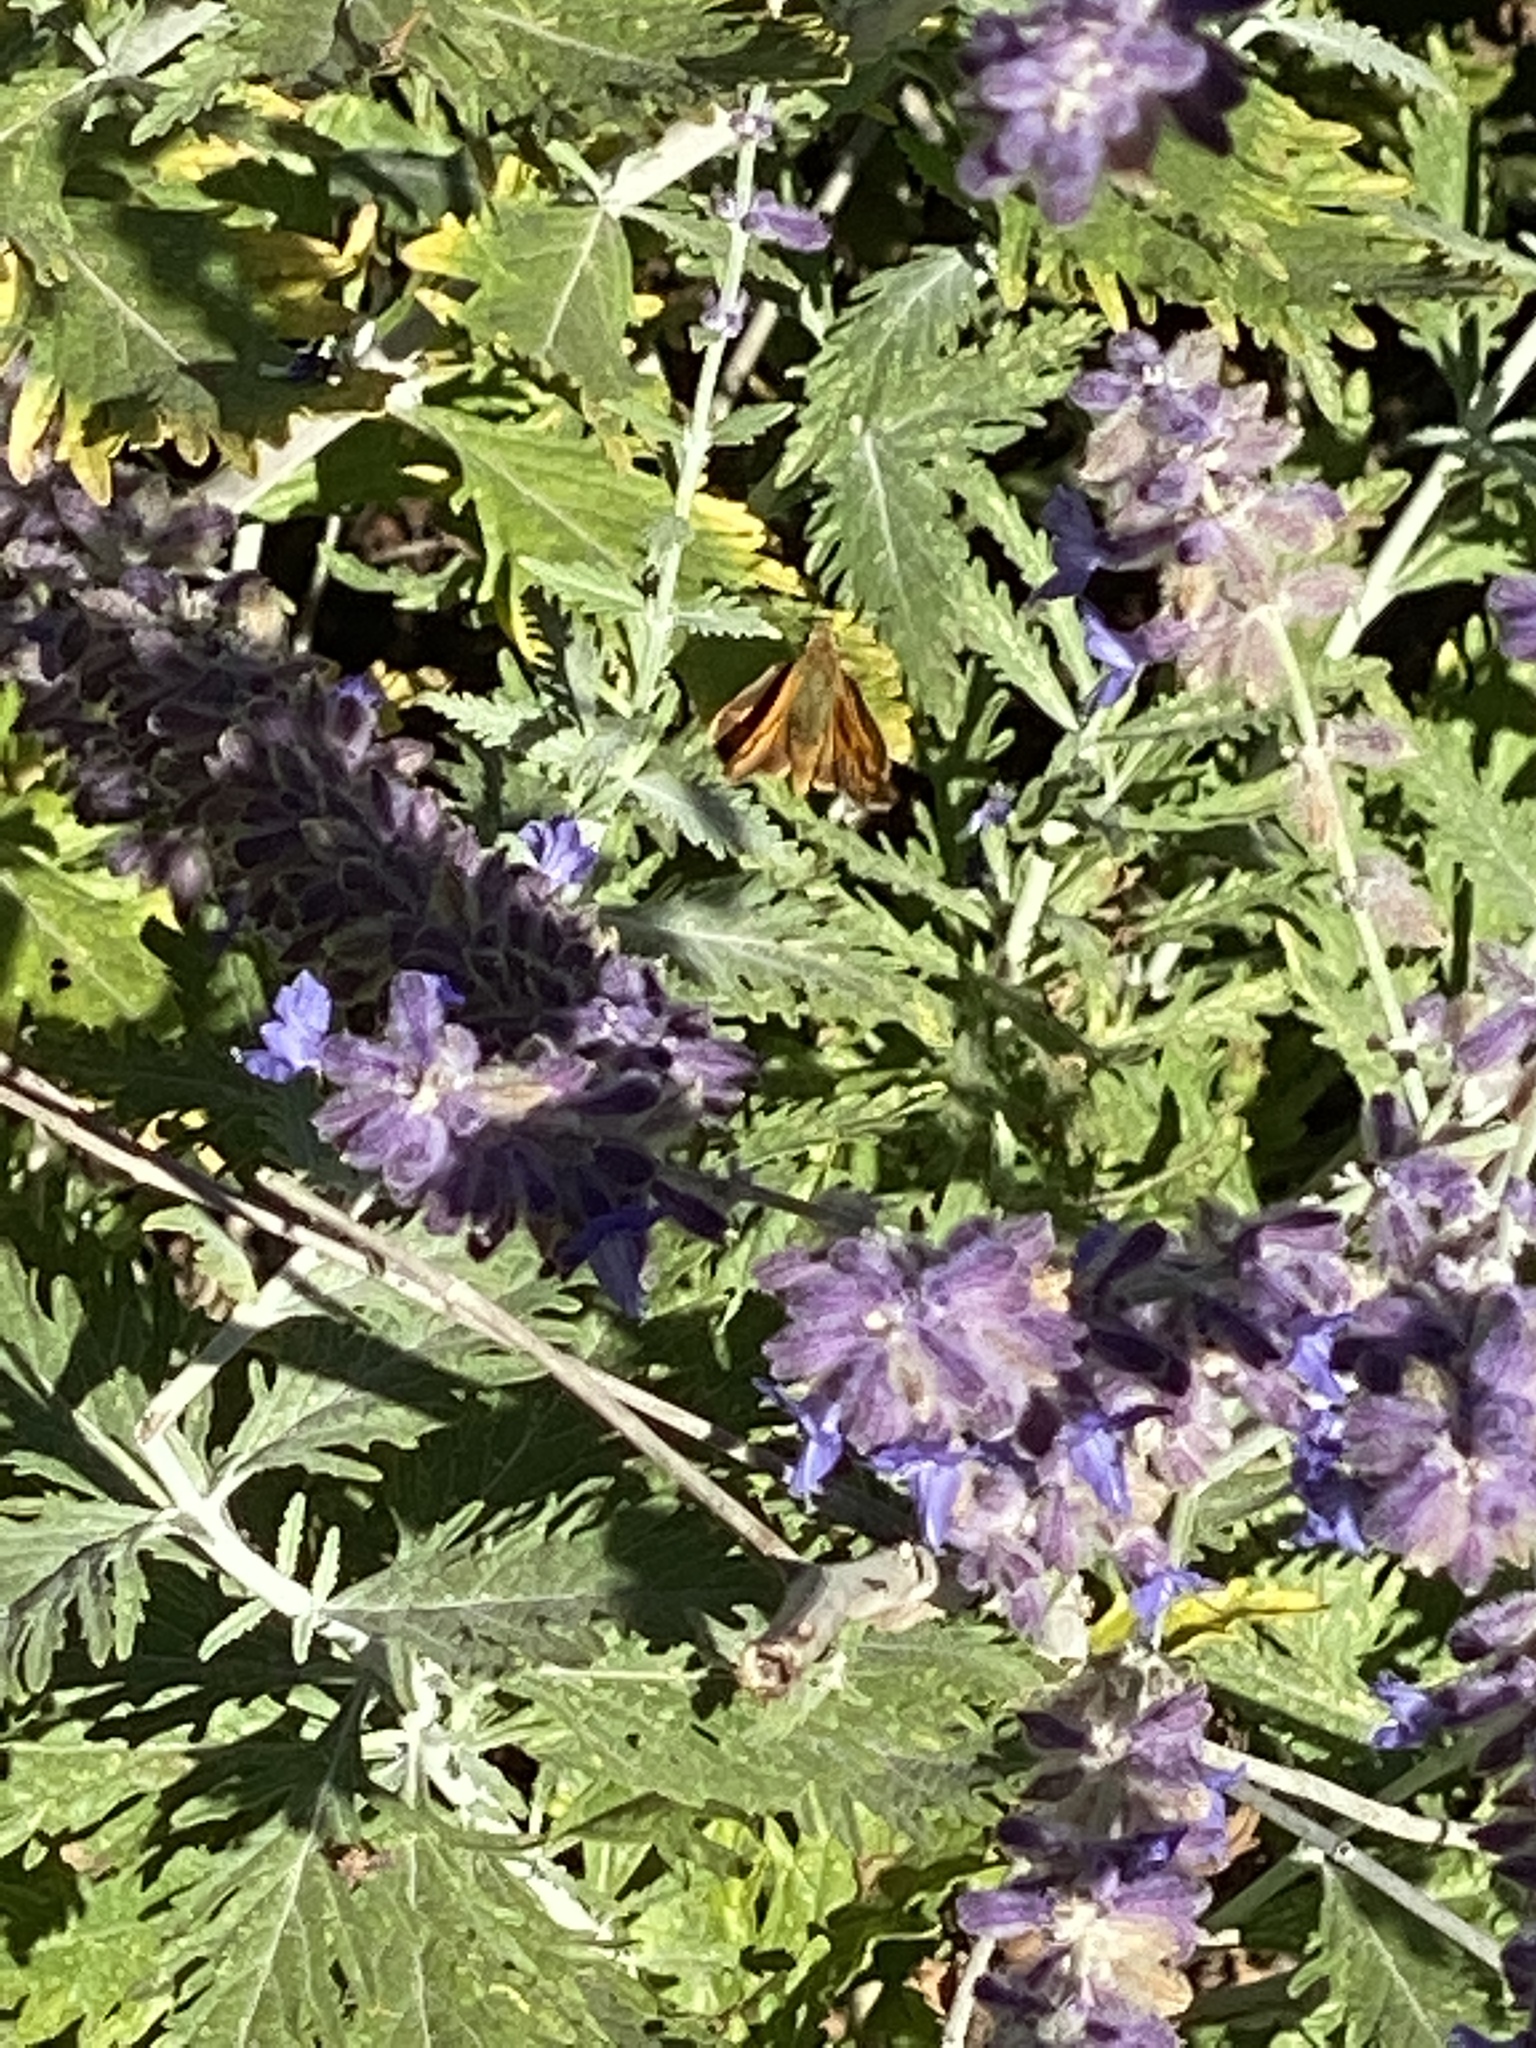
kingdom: Animalia
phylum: Arthropoda
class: Insecta
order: Lepidoptera
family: Hesperiidae
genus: Ochlodes
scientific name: Ochlodes sylvanoides
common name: Woodland skipper
